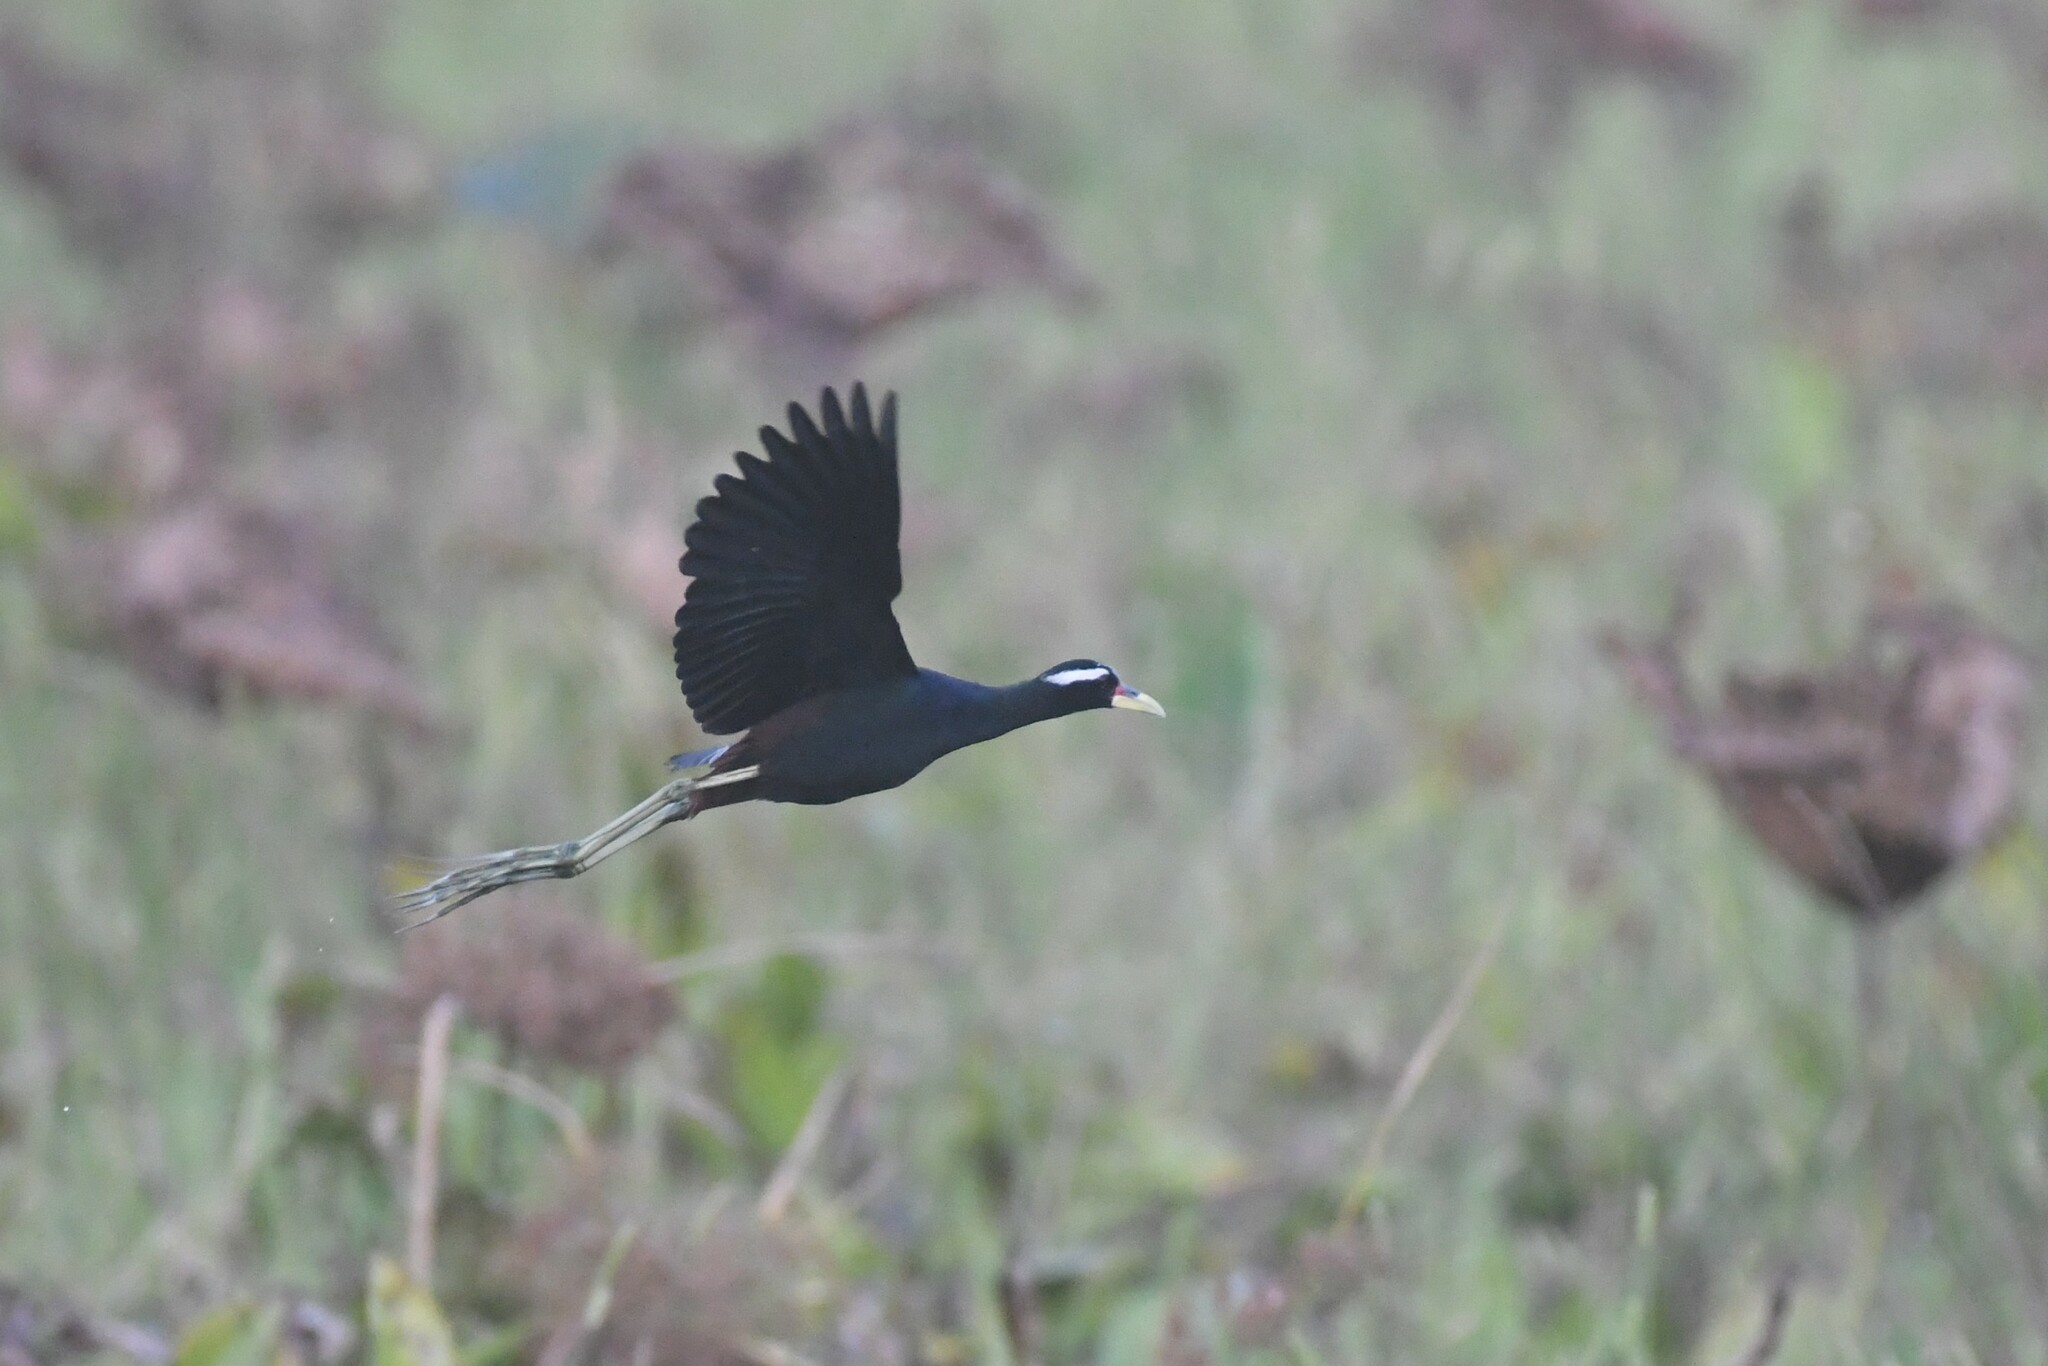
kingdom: Animalia
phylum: Chordata
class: Aves
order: Charadriiformes
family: Jacanidae
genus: Metopidius
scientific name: Metopidius indicus
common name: Bronze-winged jacana
